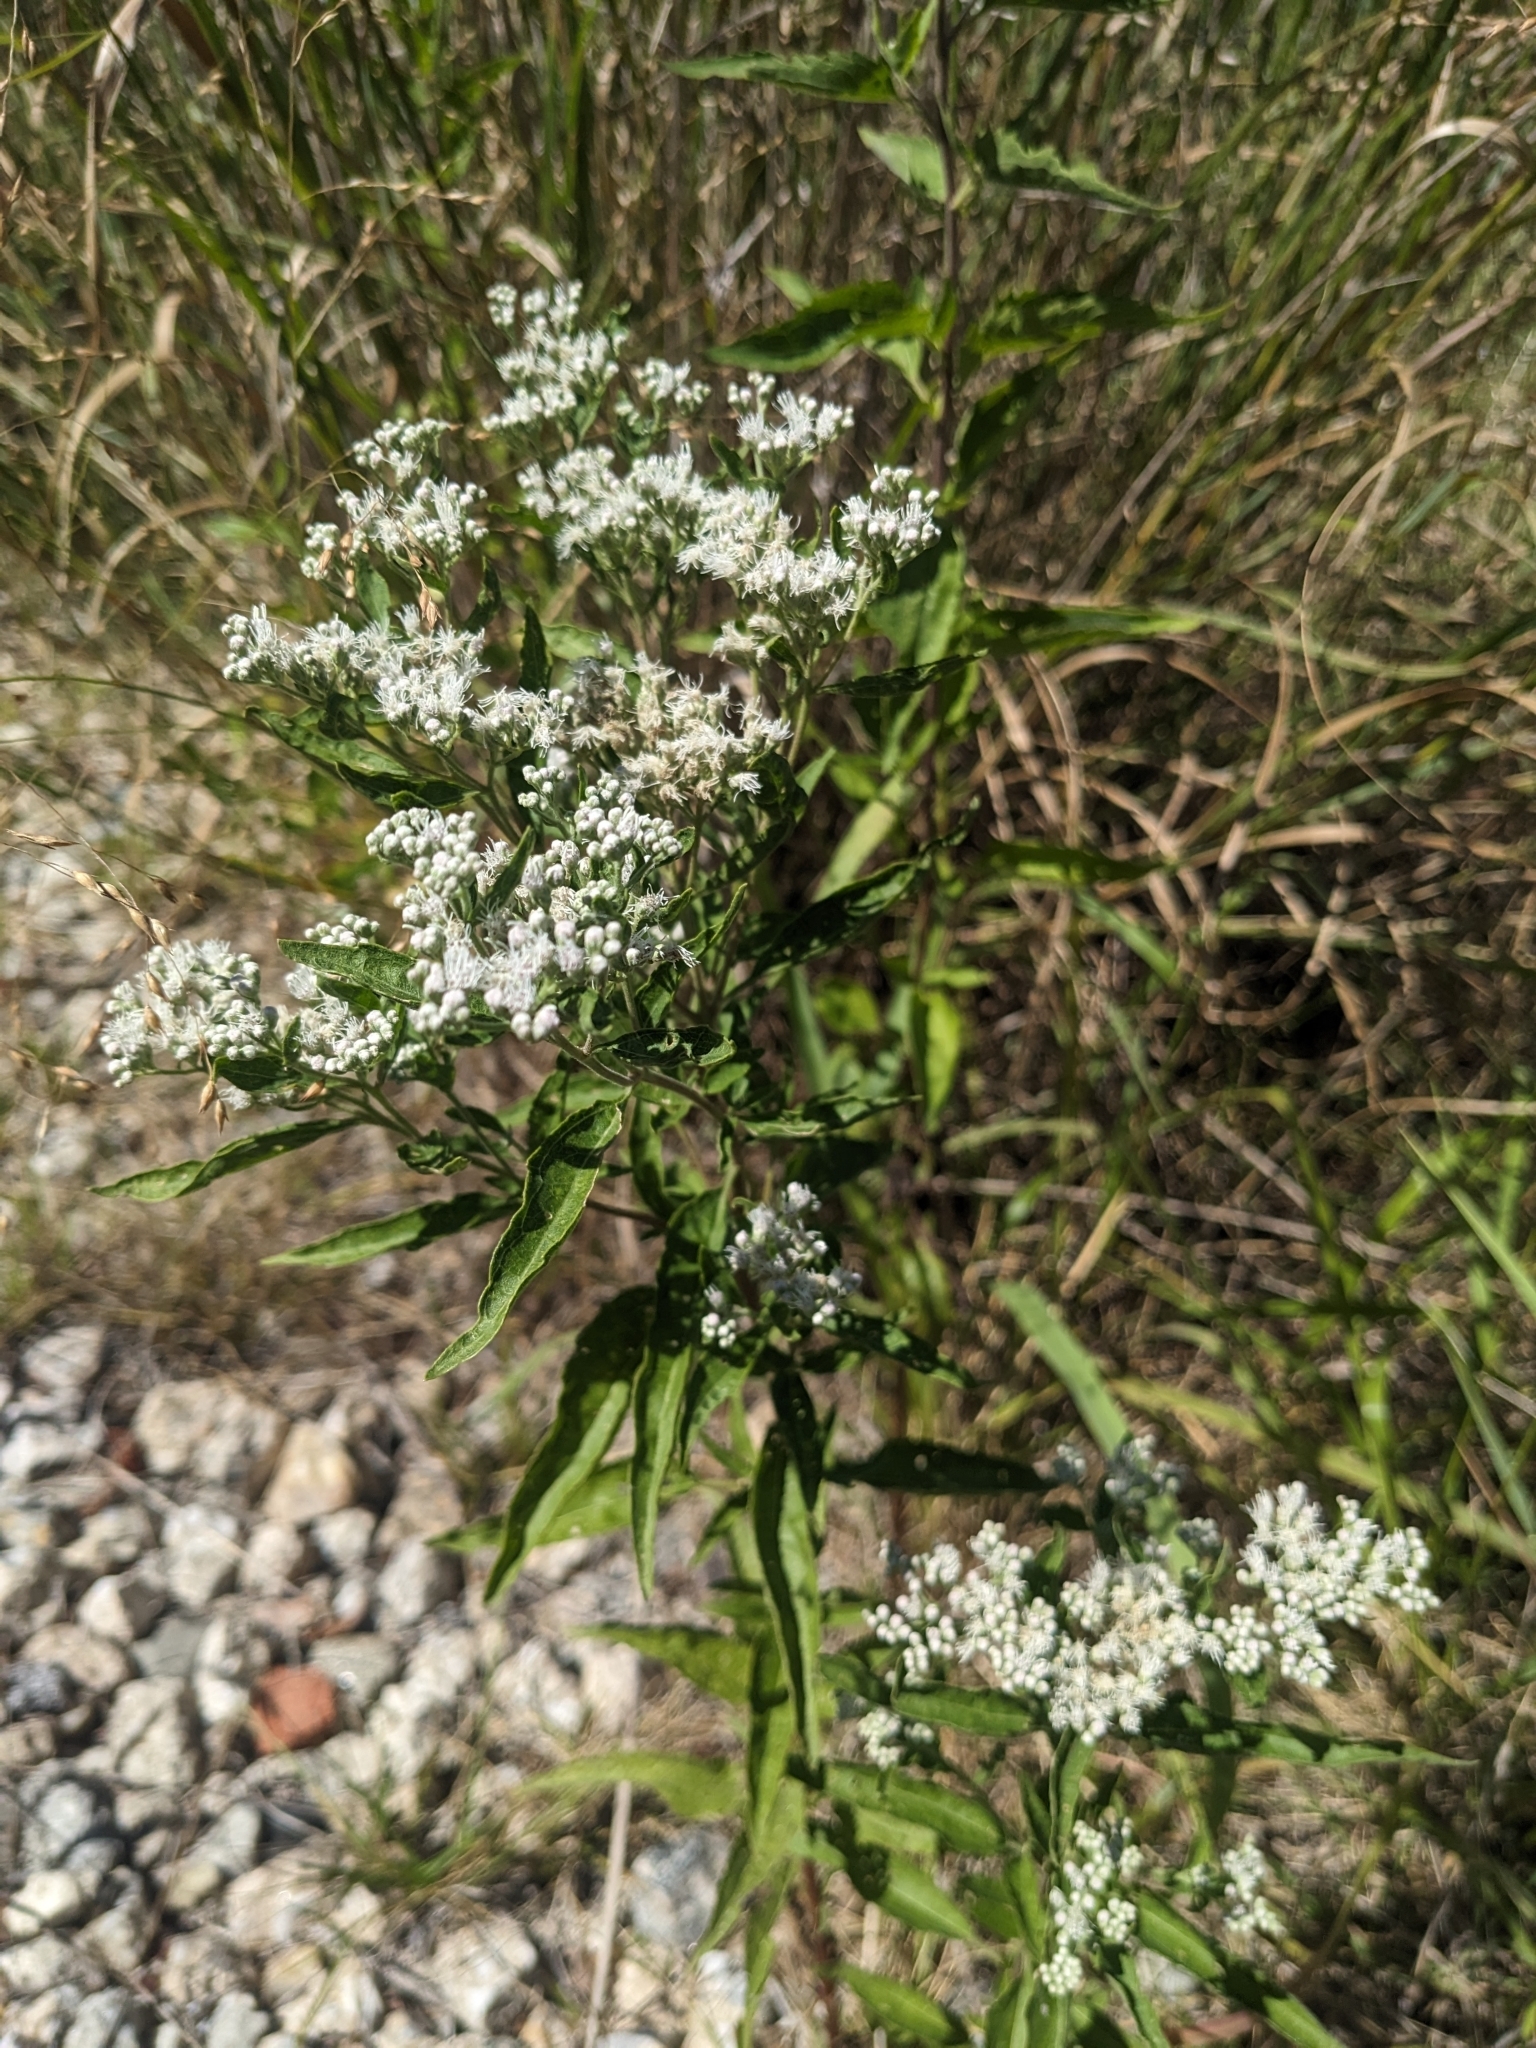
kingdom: Plantae
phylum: Tracheophyta
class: Magnoliopsida
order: Asterales
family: Asteraceae
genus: Eupatorium
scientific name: Eupatorium serotinum
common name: Late boneset
